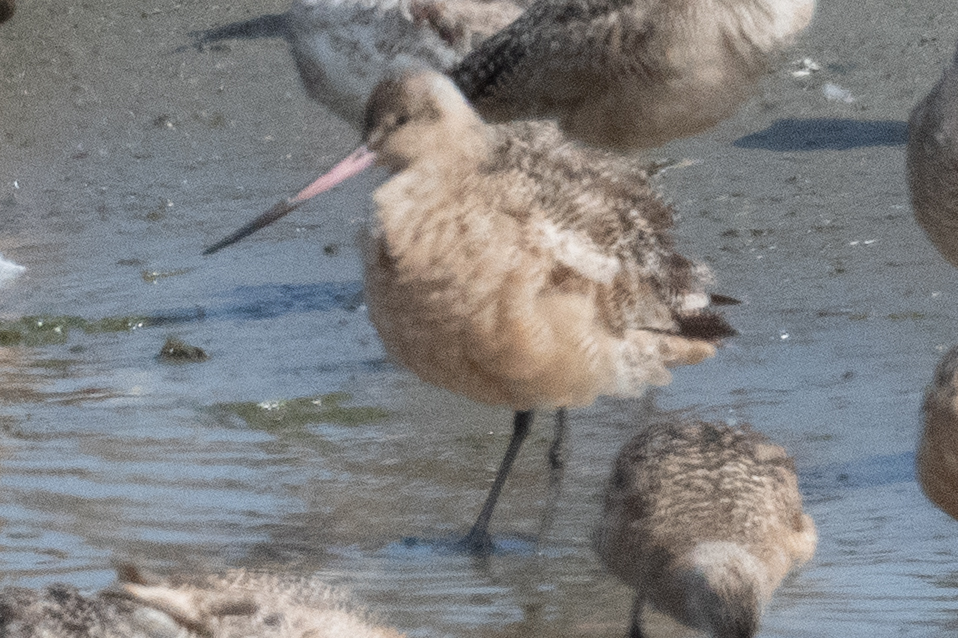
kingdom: Animalia
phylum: Chordata
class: Aves
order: Charadriiformes
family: Scolopacidae
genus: Limosa
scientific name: Limosa fedoa
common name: Marbled godwit
